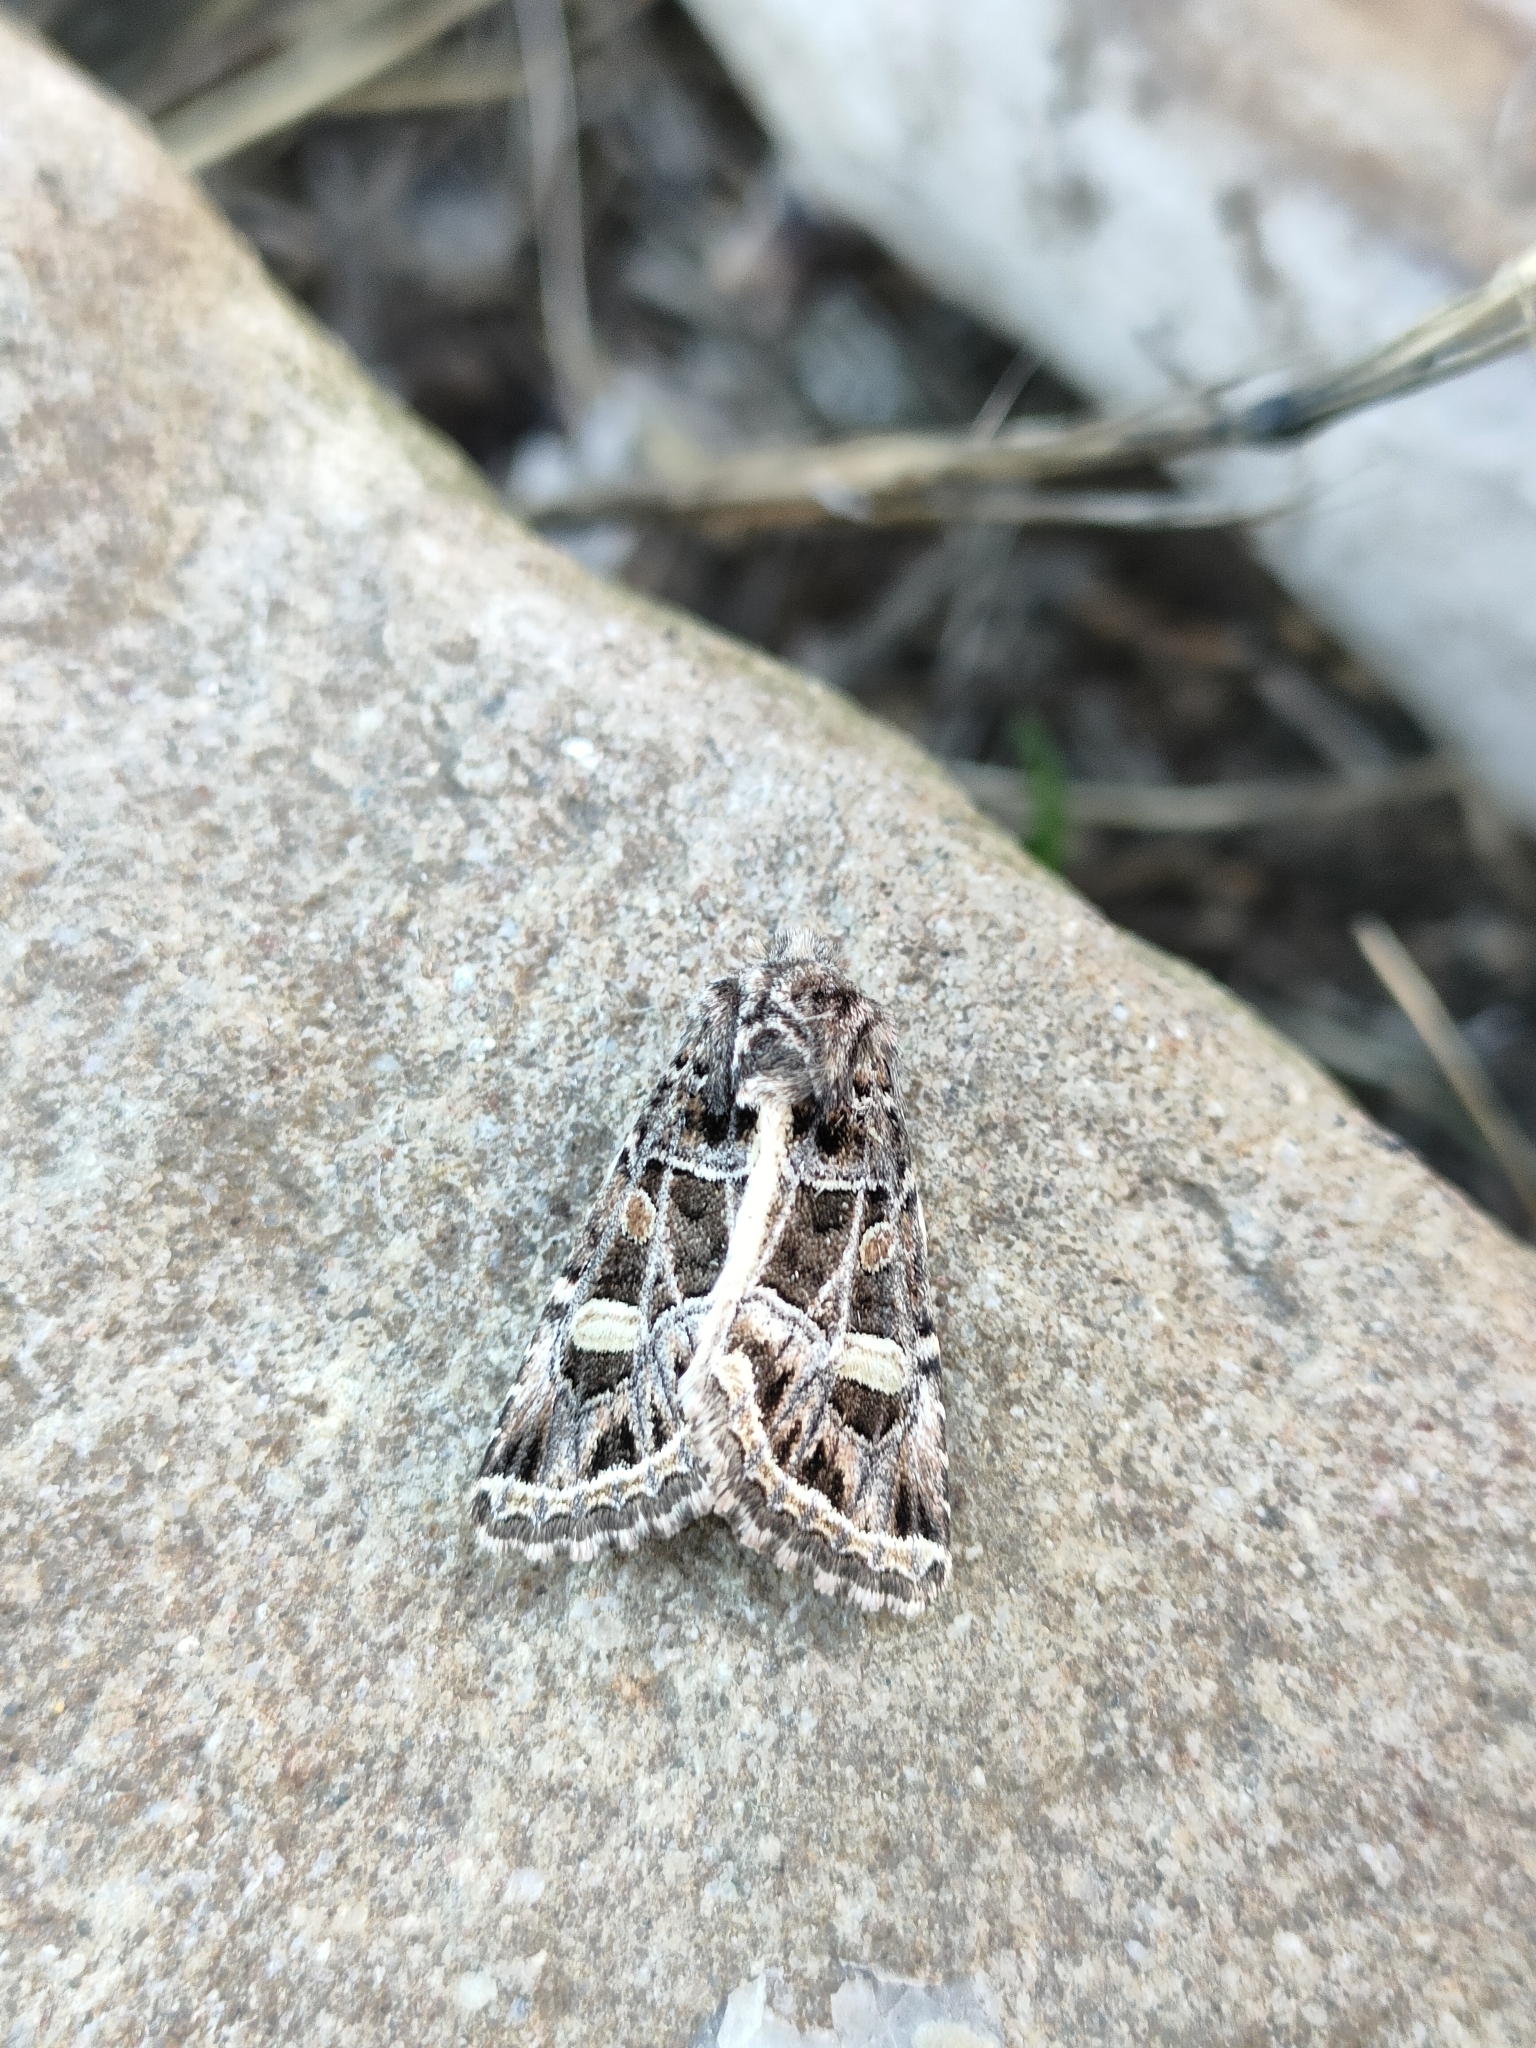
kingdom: Animalia
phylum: Arthropoda
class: Insecta
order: Lepidoptera
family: Noctuidae
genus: Leucochlaena
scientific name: Leucochlaena oditis
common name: Beautiful gothic
